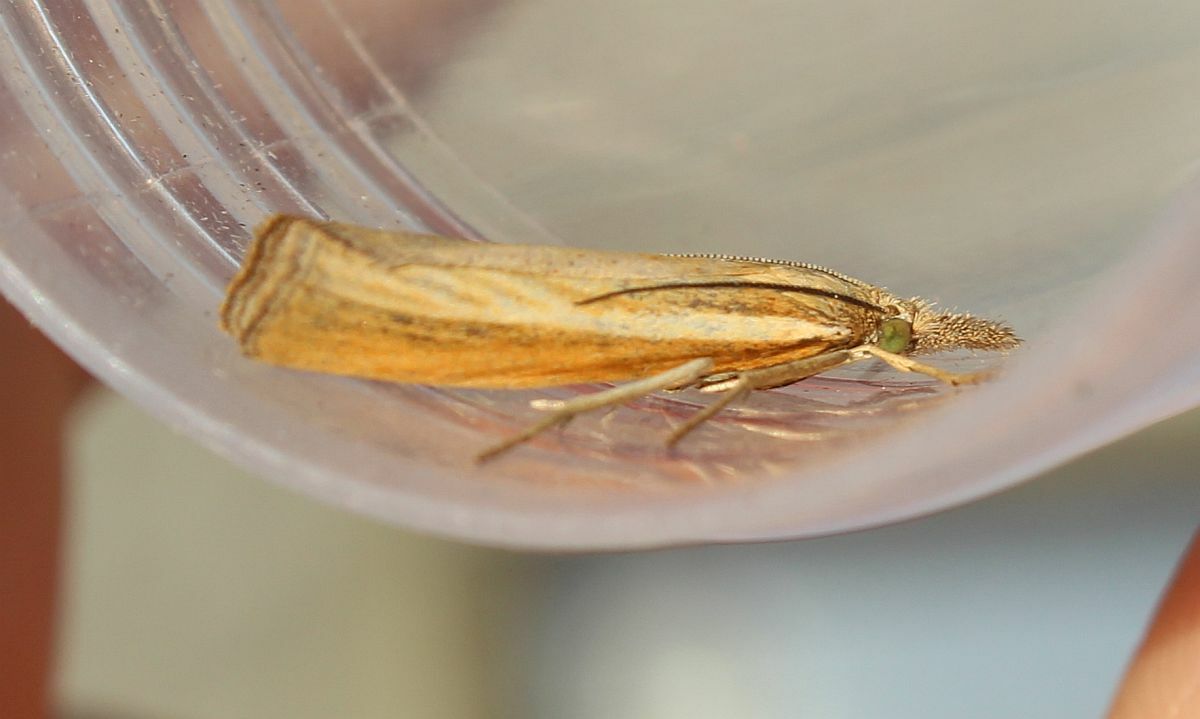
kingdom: Animalia
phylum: Arthropoda
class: Insecta
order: Lepidoptera
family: Crambidae
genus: Agriphila
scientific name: Agriphila tristellus
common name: Common grass-veneer
